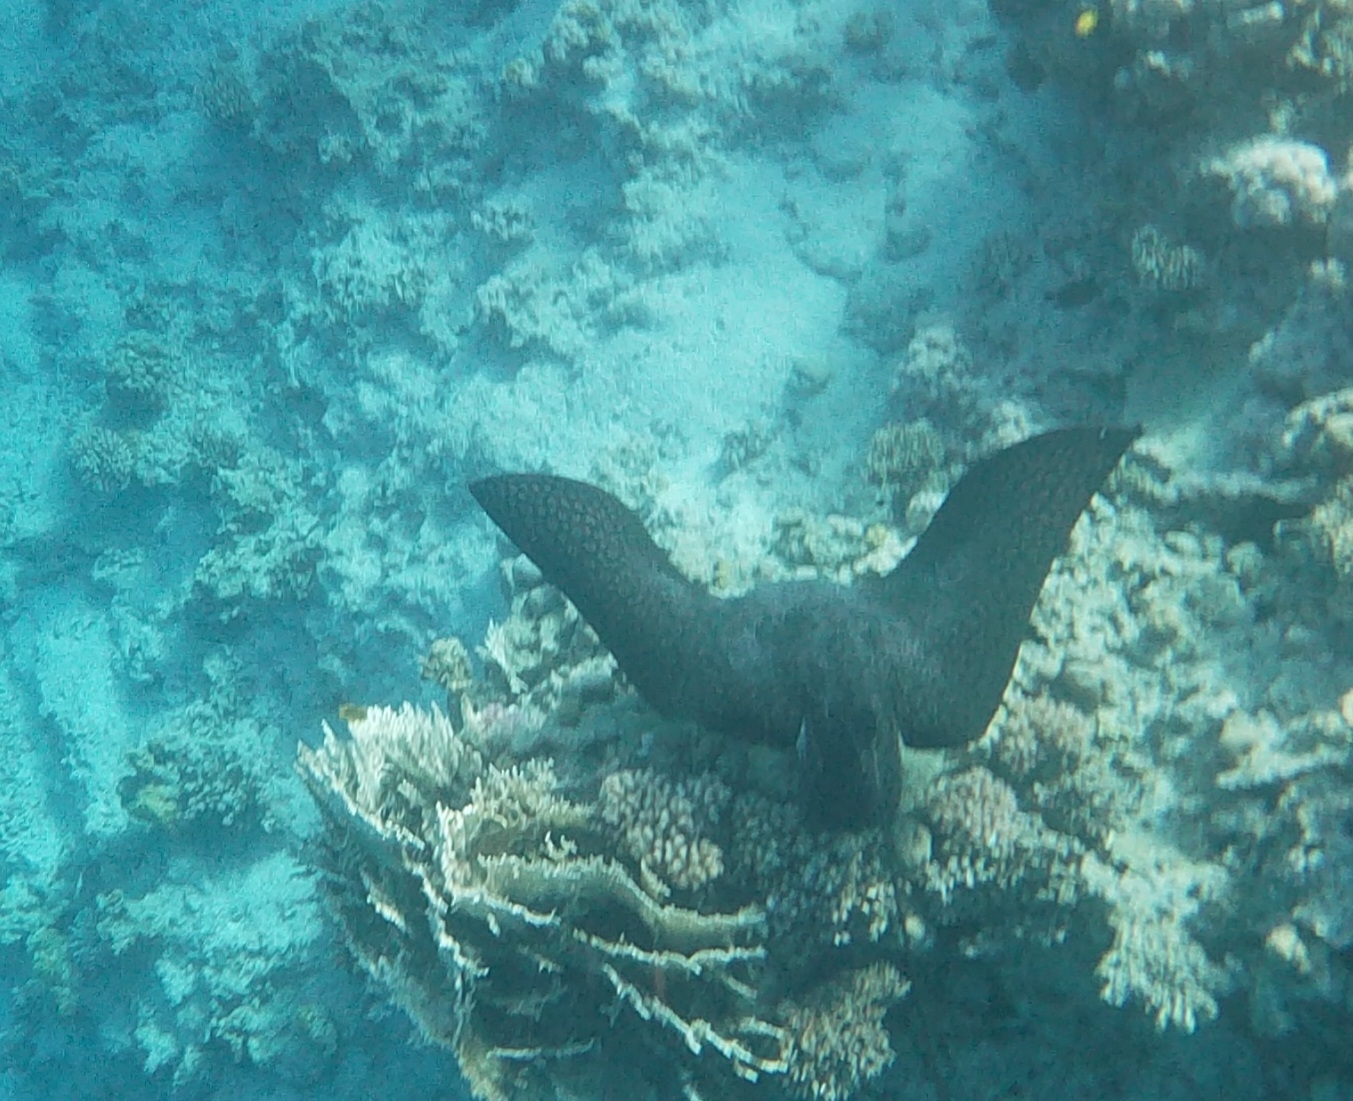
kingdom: Animalia
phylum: Chordata
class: Elasmobranchii
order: Myliobatiformes
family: Myliobatidae
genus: Aetobatus
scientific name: Aetobatus ocellatus
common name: Ocellated eagle ray
